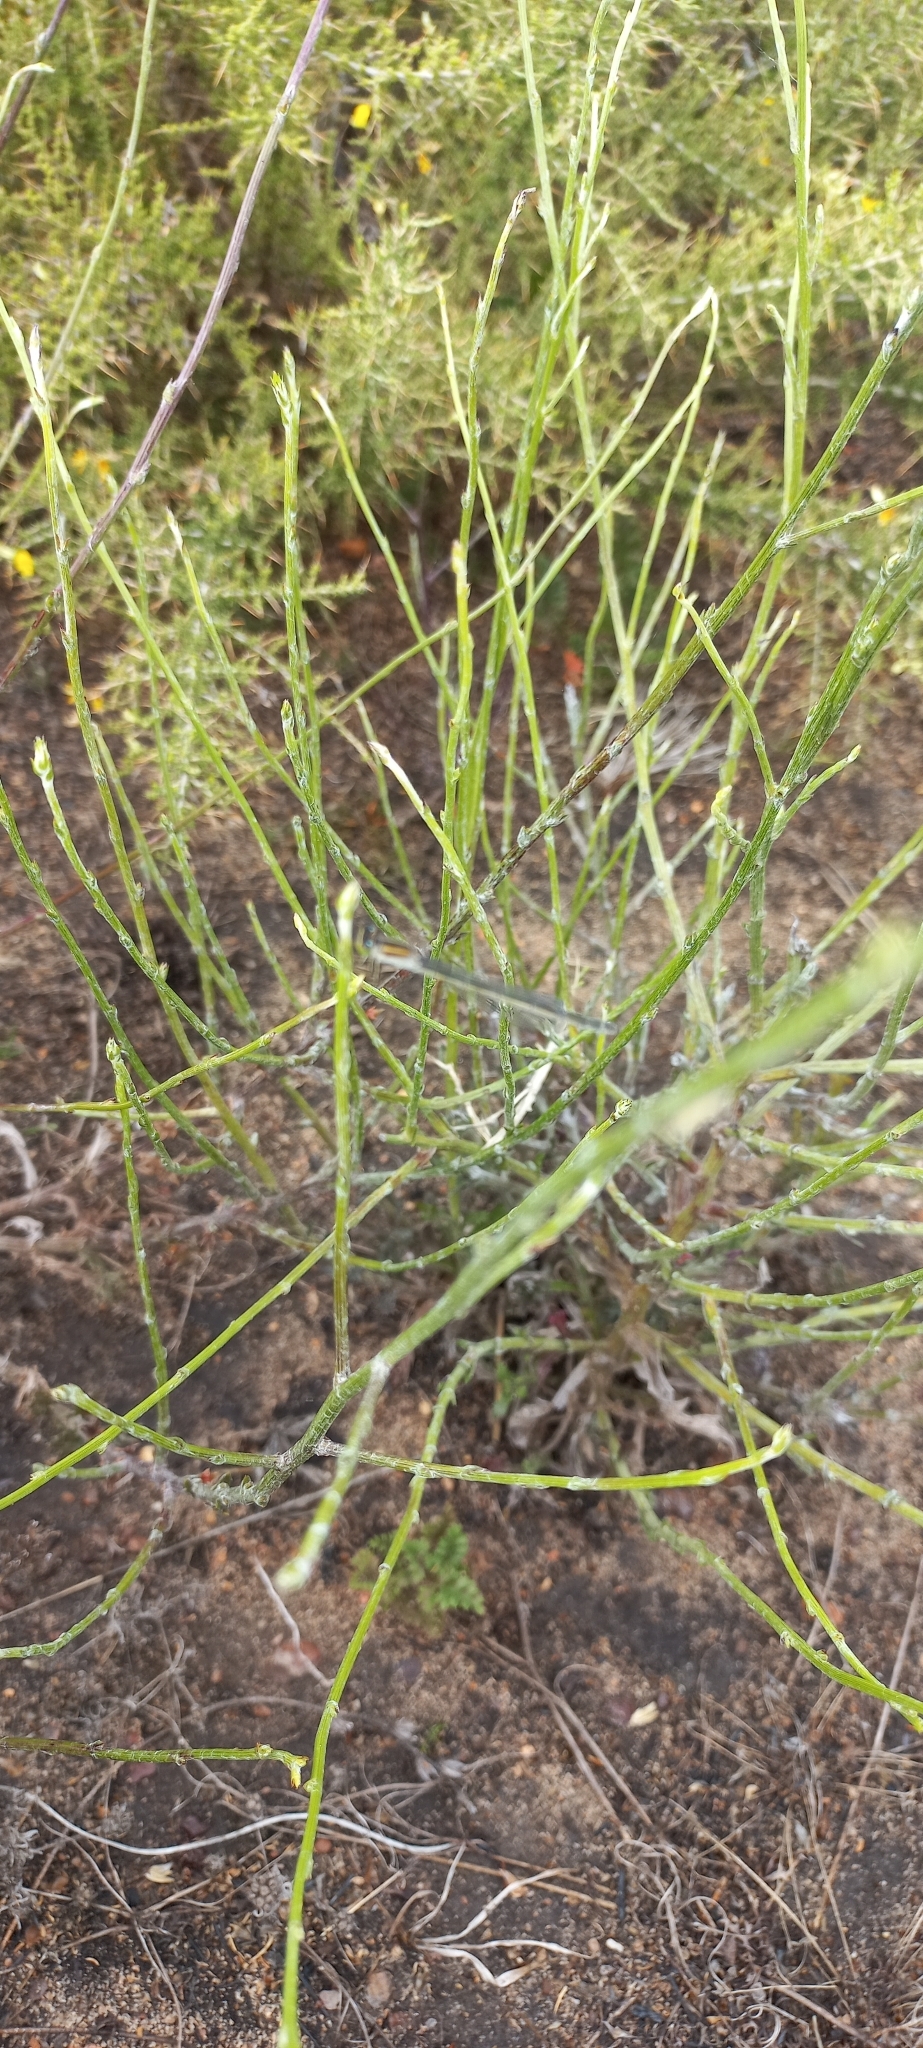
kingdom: Animalia
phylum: Arthropoda
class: Insecta
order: Odonata
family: Coenagrionidae
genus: Ischnura
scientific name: Ischnura senegalensis
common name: Tropical bluetail
